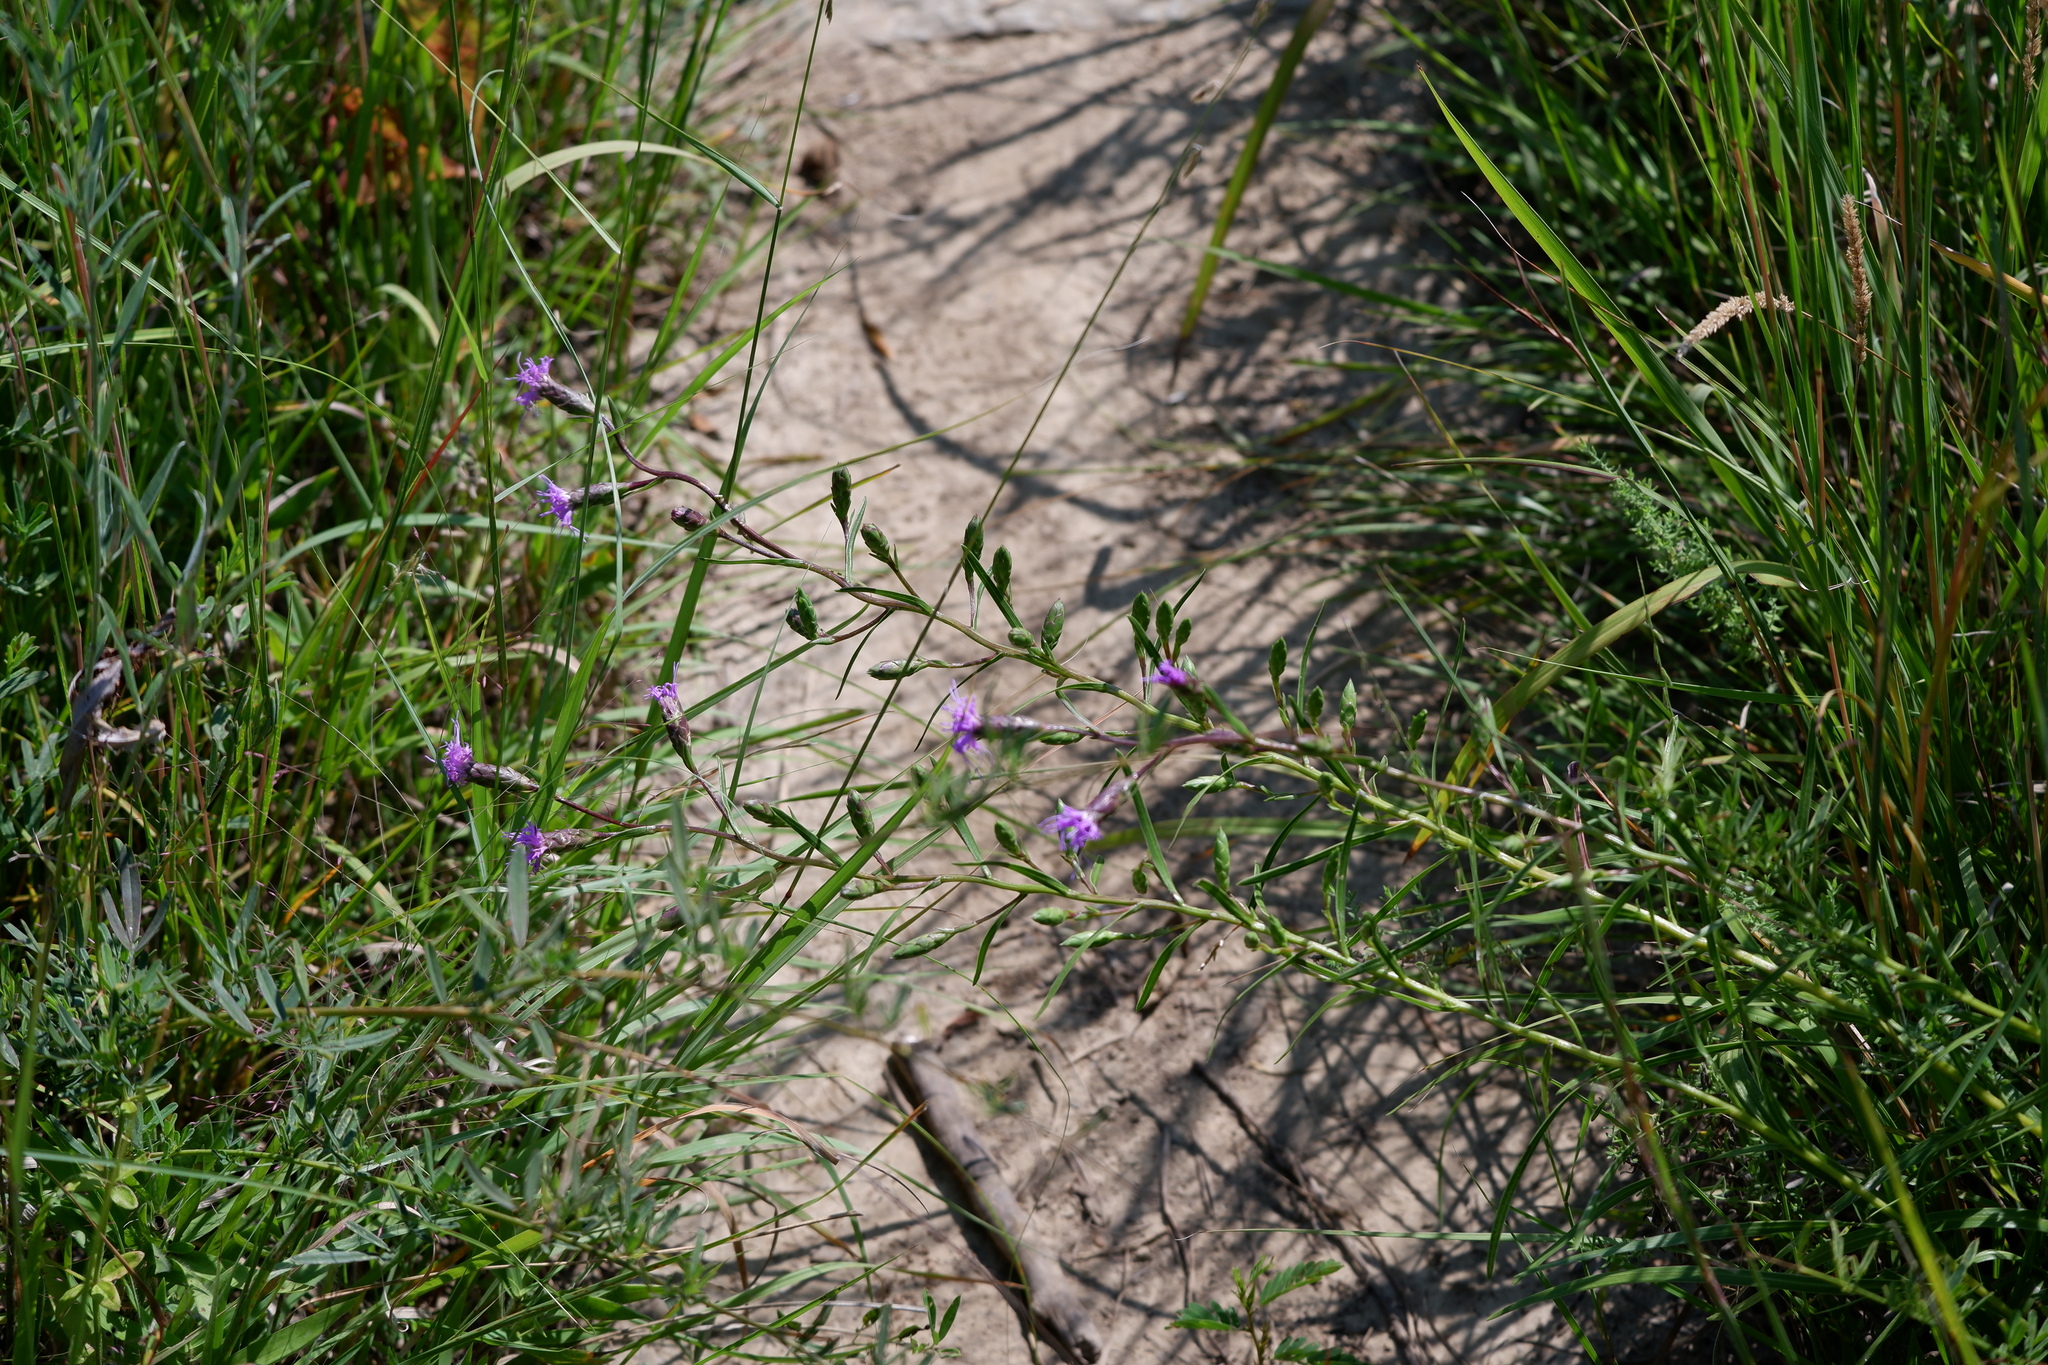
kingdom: Plantae
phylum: Tracheophyta
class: Magnoliopsida
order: Asterales
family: Asteraceae
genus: Liatris
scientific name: Liatris cylindracea
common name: Few-head blazingstar
